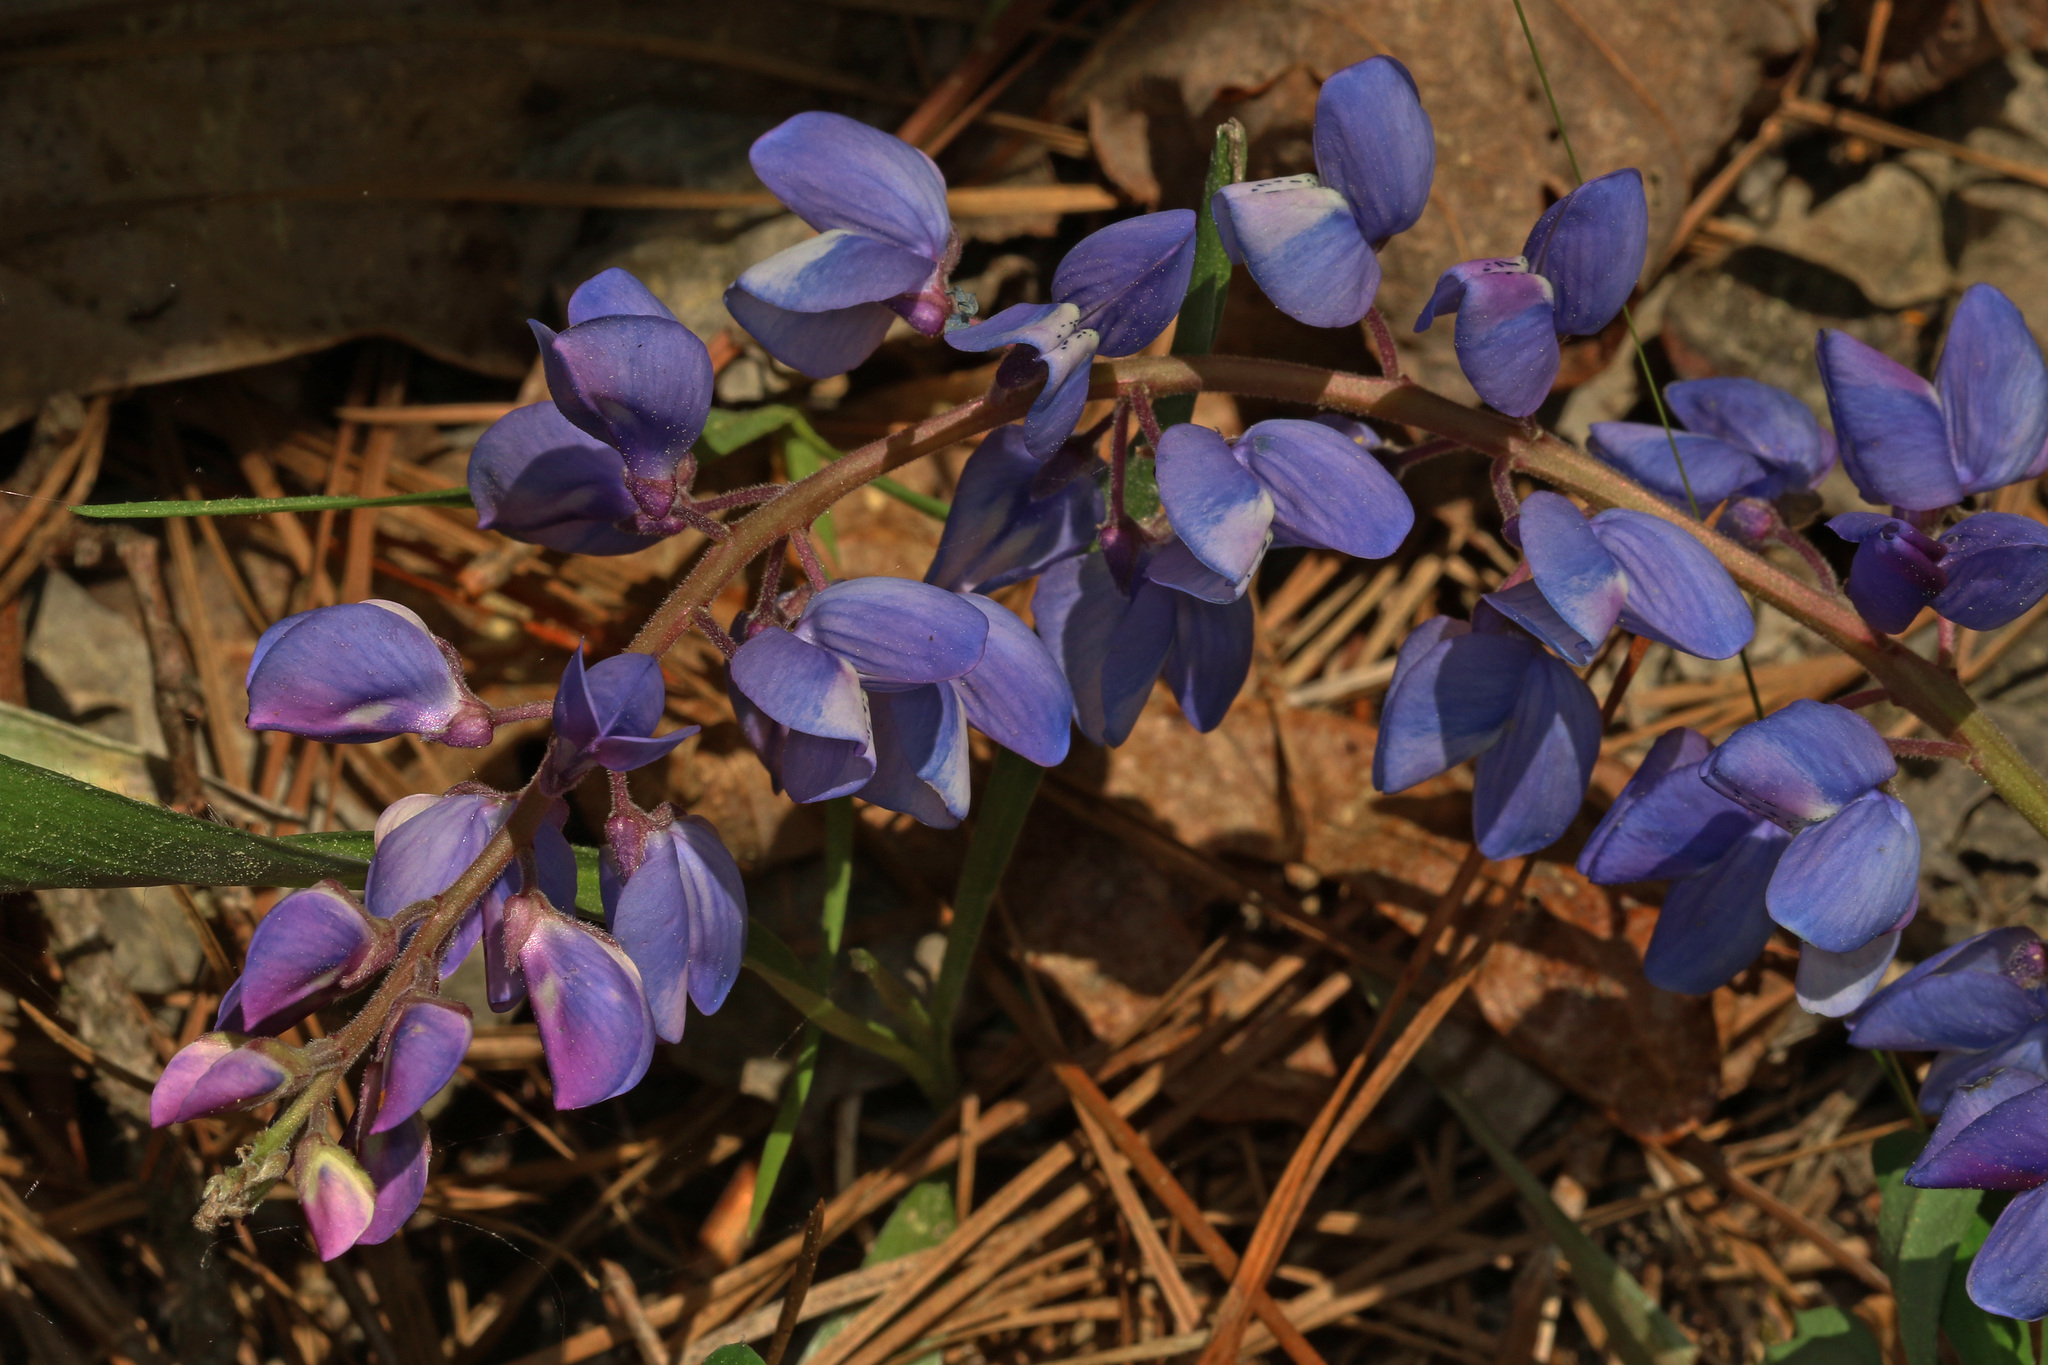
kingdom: Plantae
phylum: Tracheophyta
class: Magnoliopsida
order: Fabales
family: Fabaceae
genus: Lupinus
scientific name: Lupinus perennis
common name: Sundial lupine
